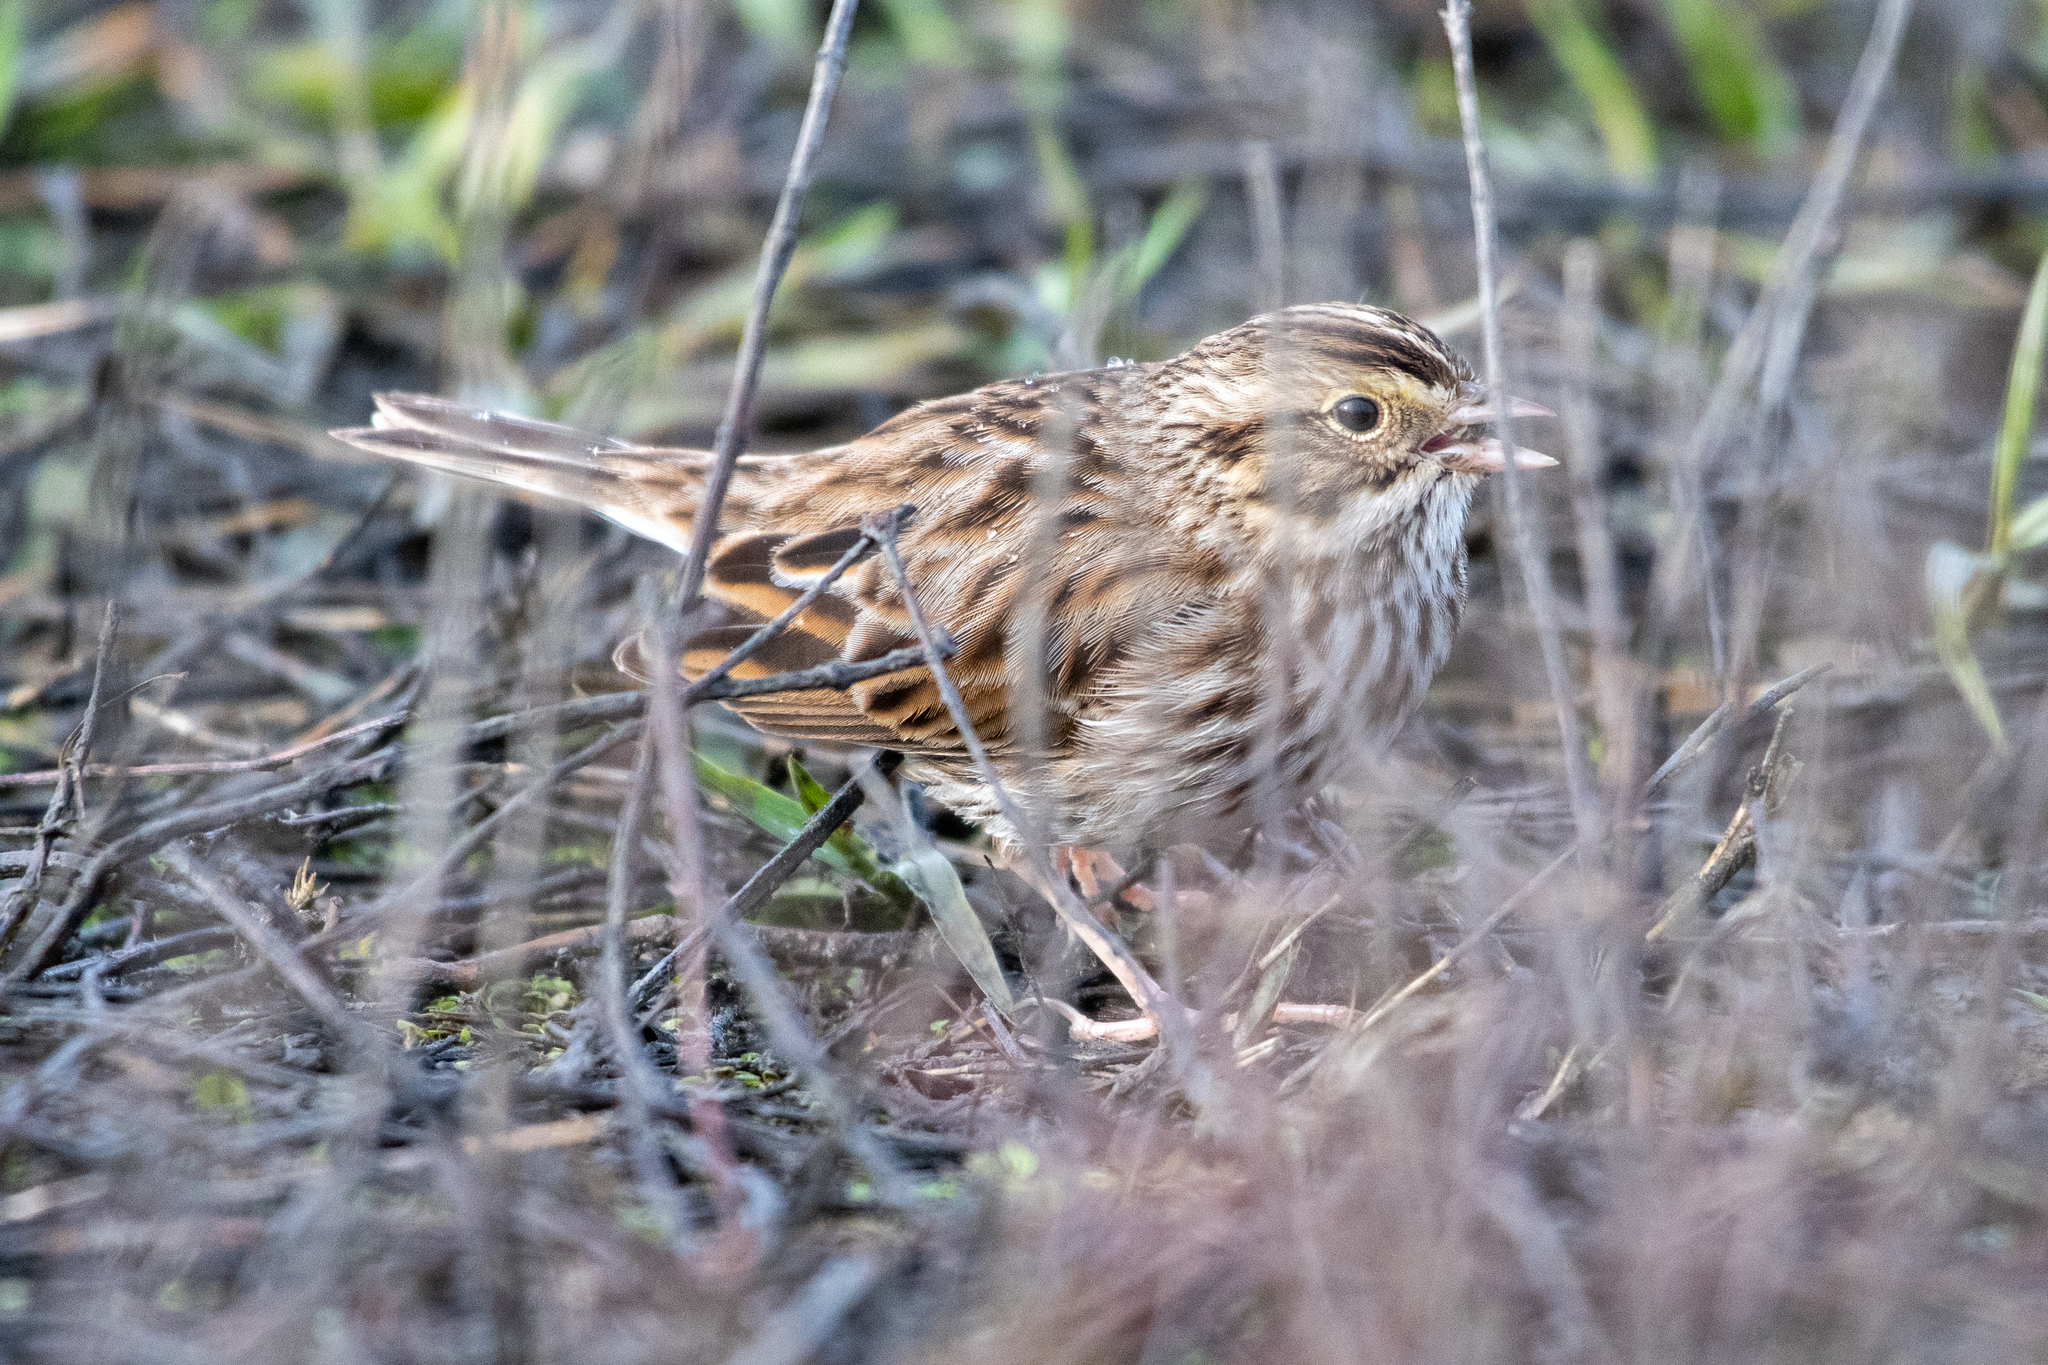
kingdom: Animalia
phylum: Chordata
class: Aves
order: Passeriformes
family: Passerellidae
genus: Passerculus
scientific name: Passerculus sandwichensis
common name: Savannah sparrow
